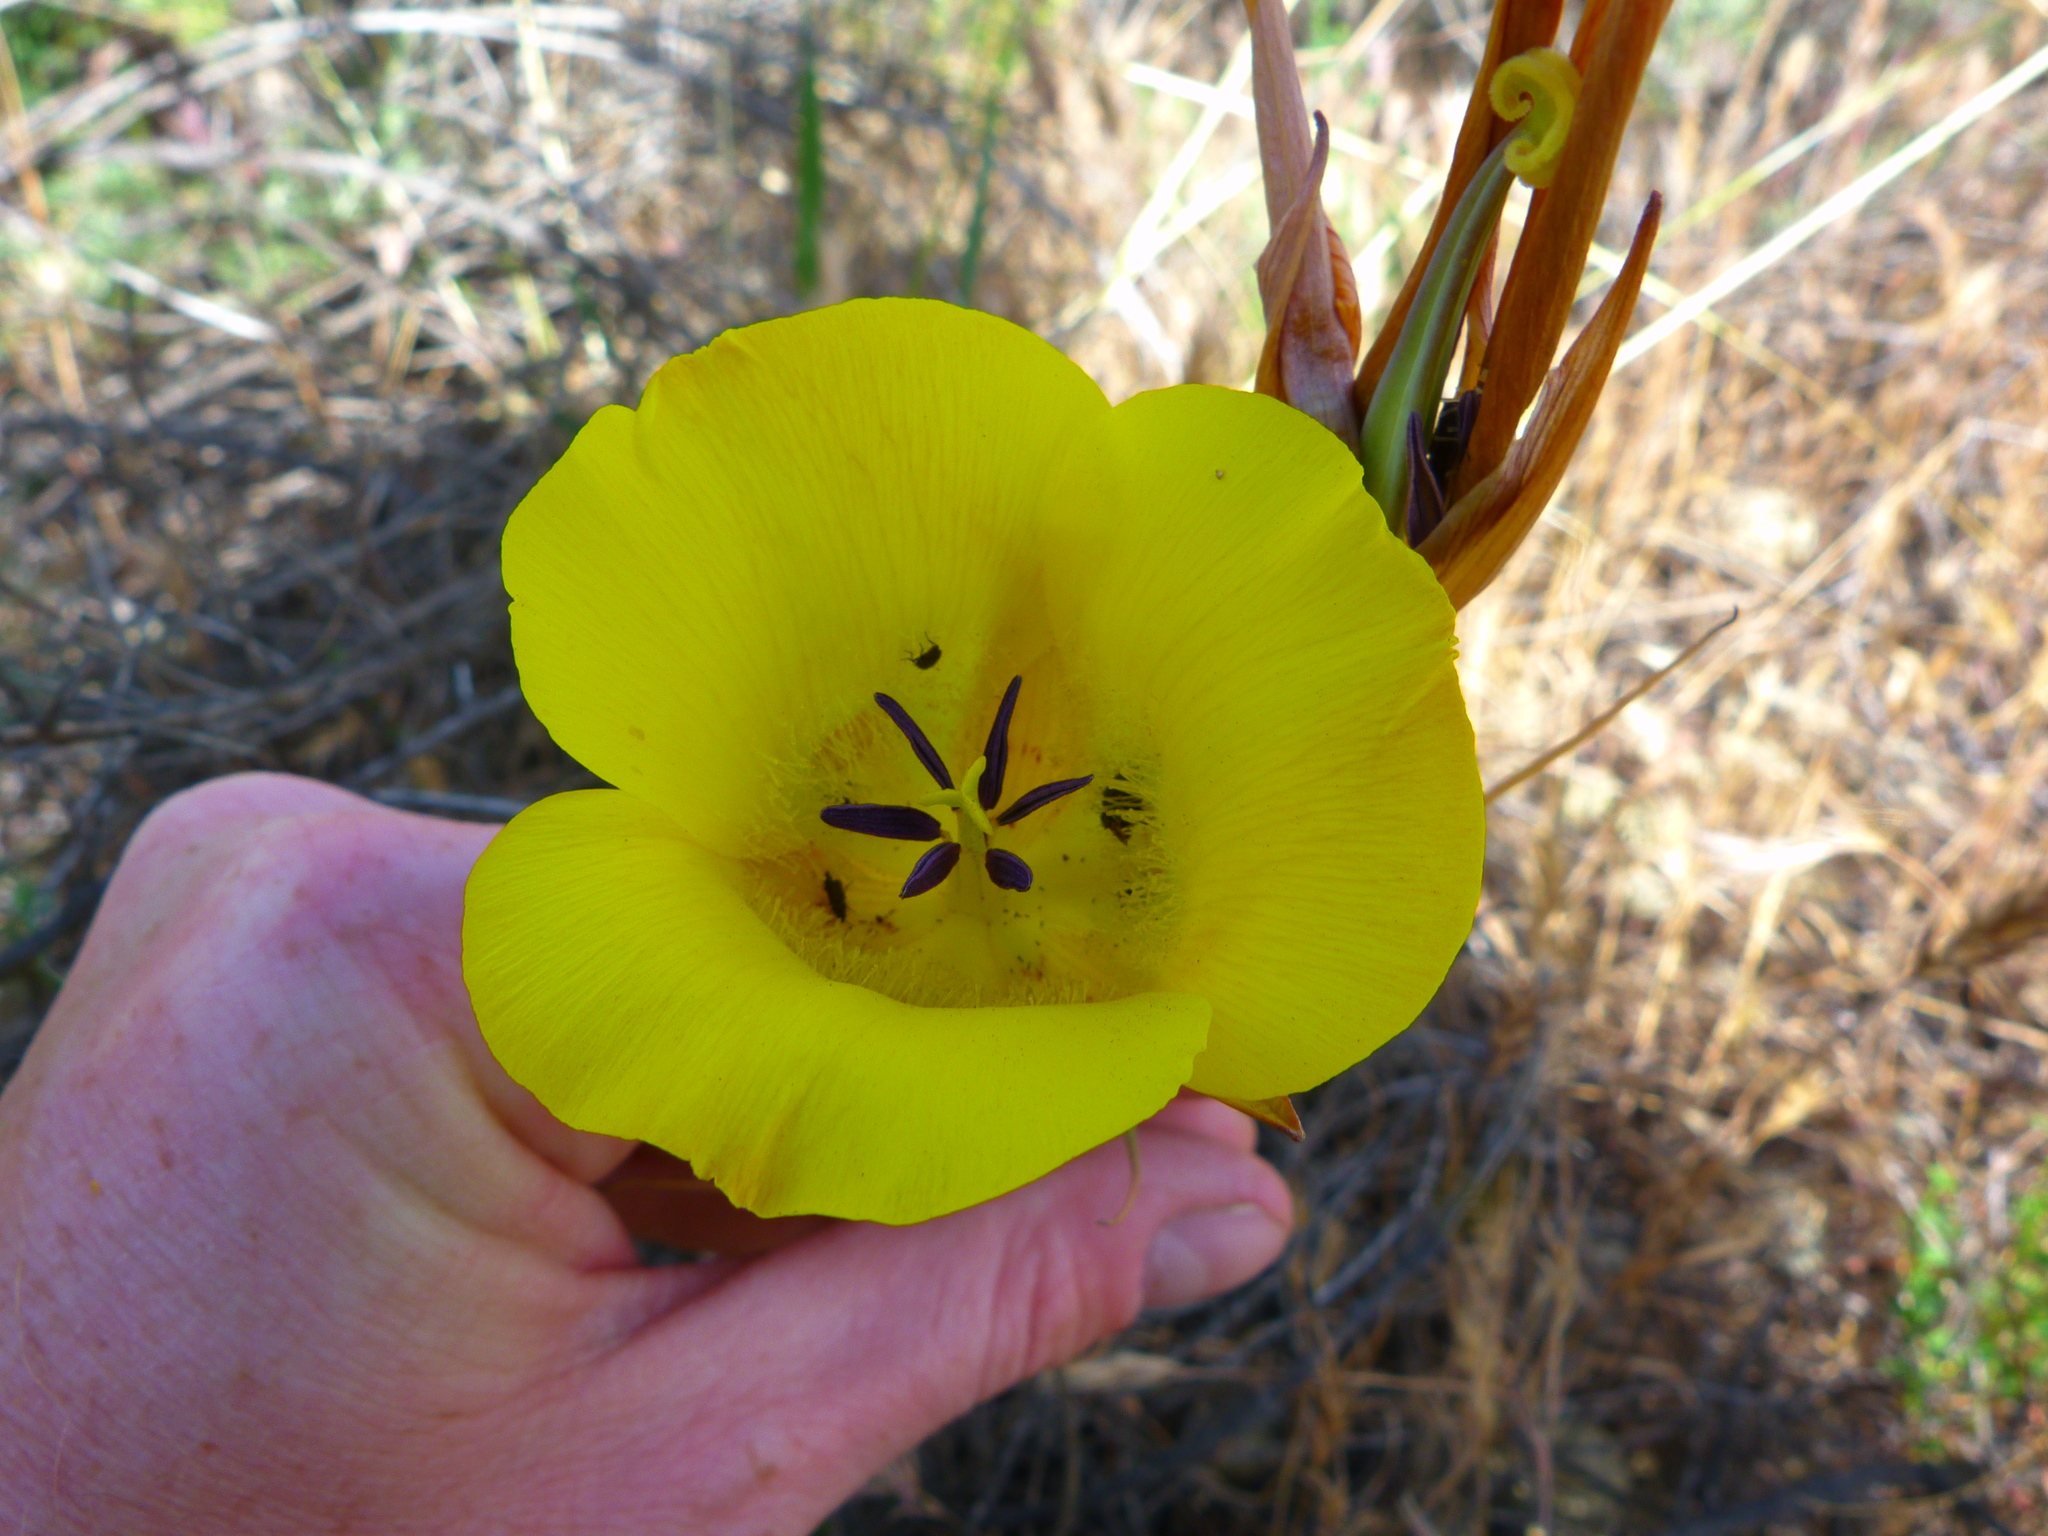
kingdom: Plantae
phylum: Tracheophyta
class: Liliopsida
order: Liliales
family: Liliaceae
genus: Calochortus
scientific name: Calochortus clavatus
